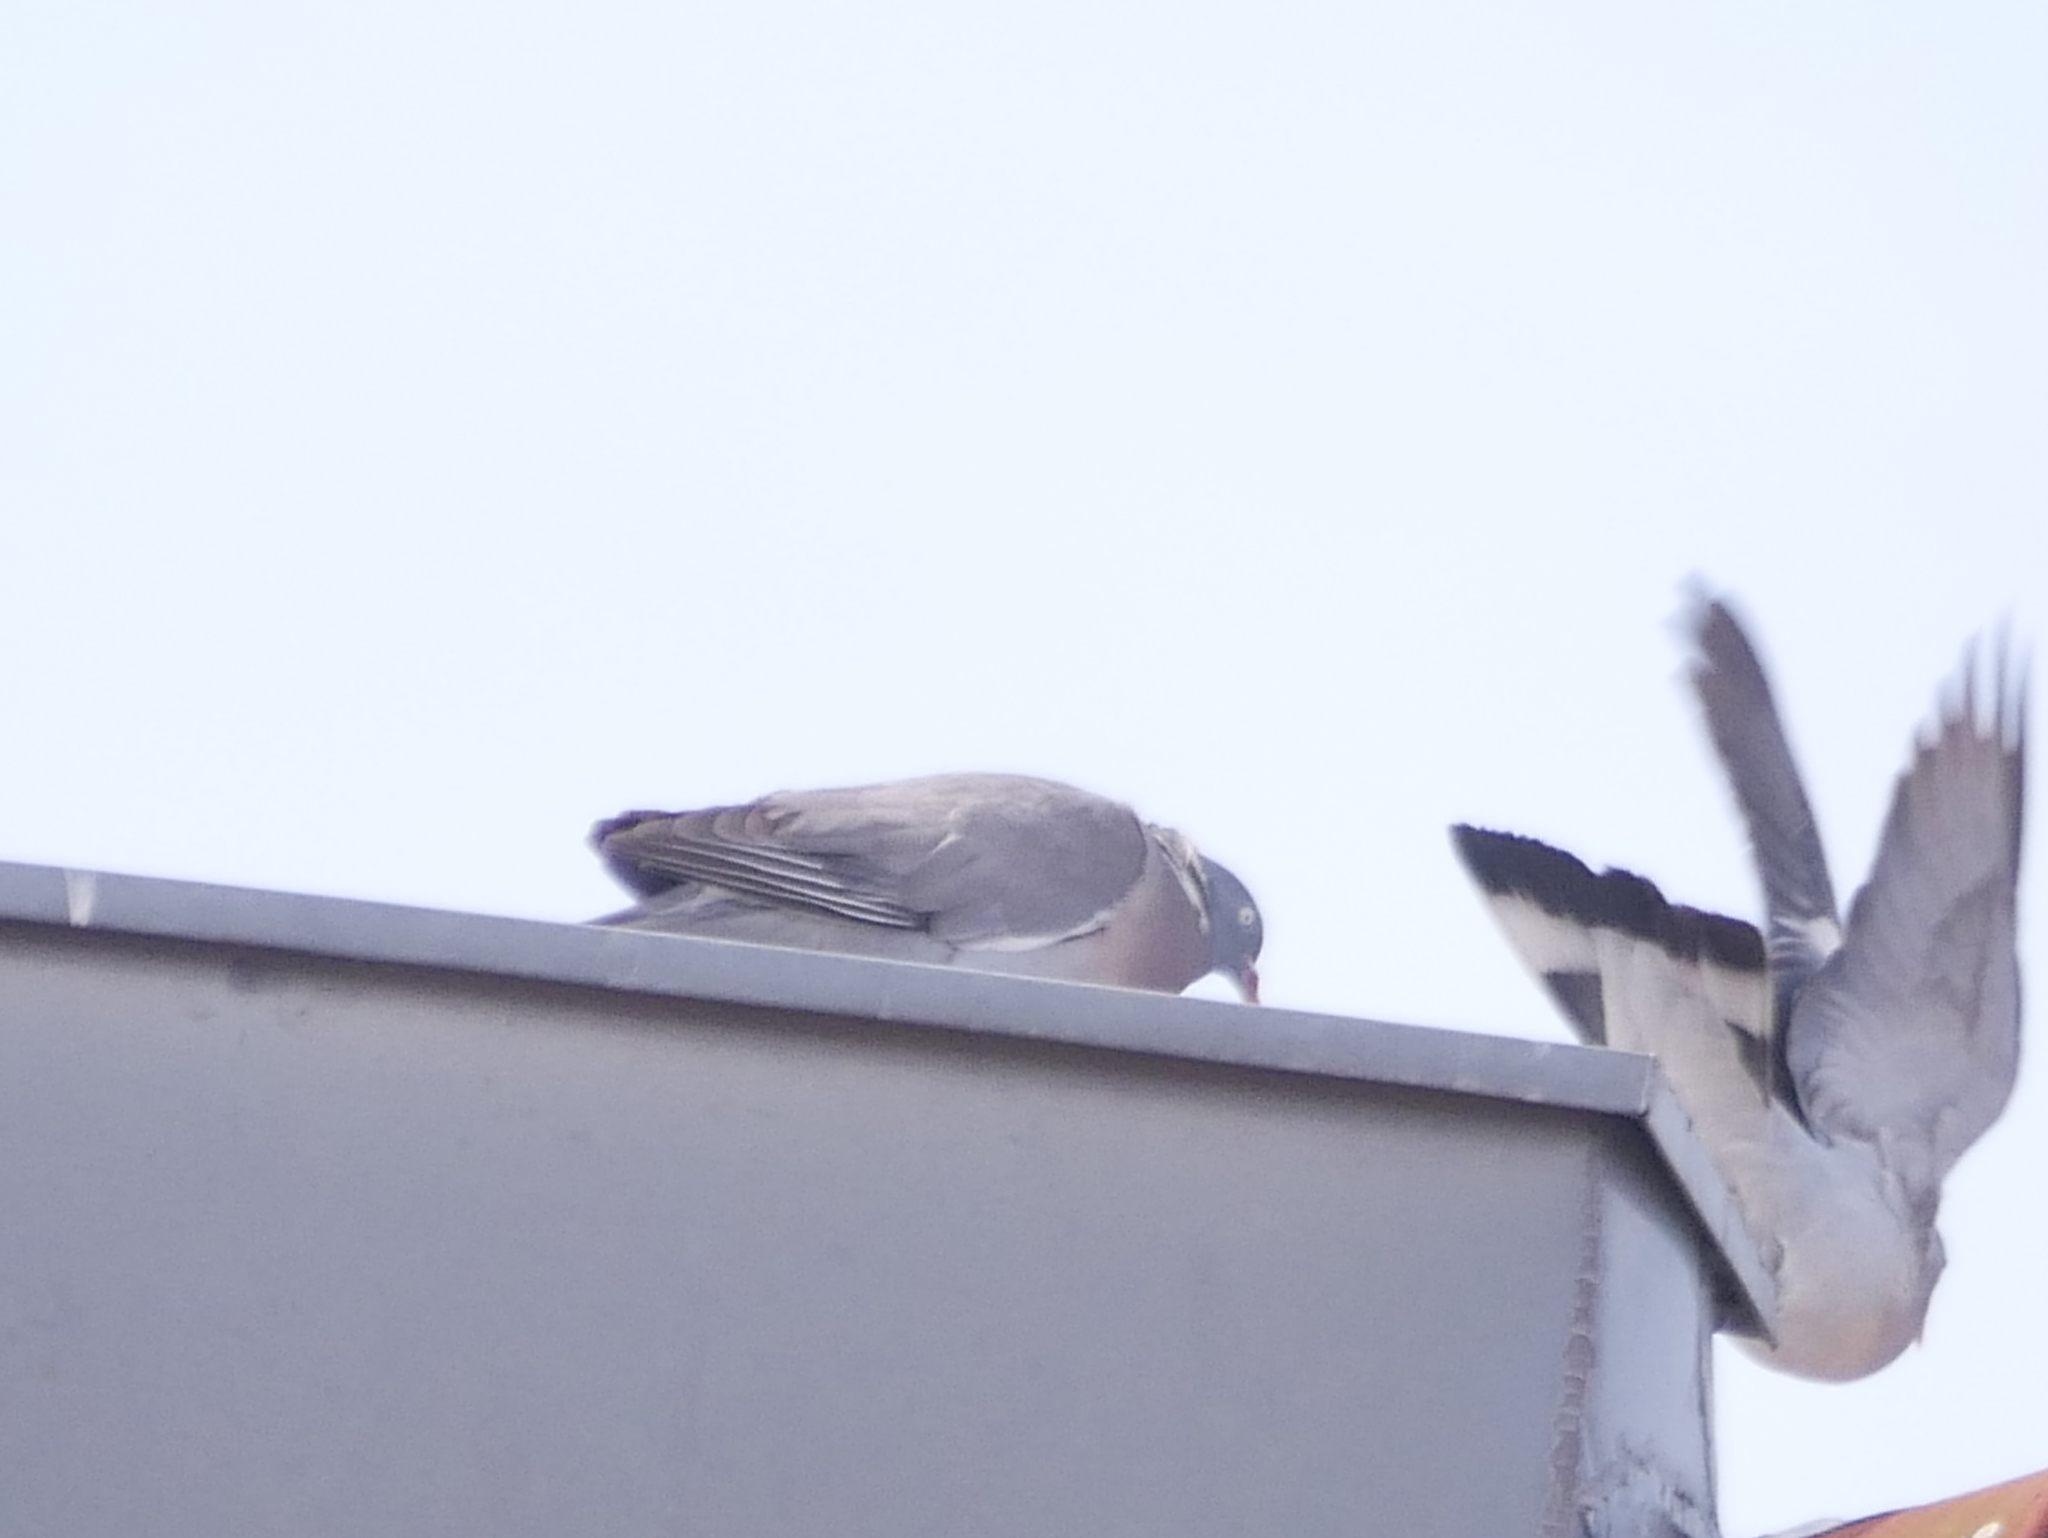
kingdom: Animalia
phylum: Chordata
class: Aves
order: Columbiformes
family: Columbidae
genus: Columba
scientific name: Columba palumbus
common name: Common wood pigeon
